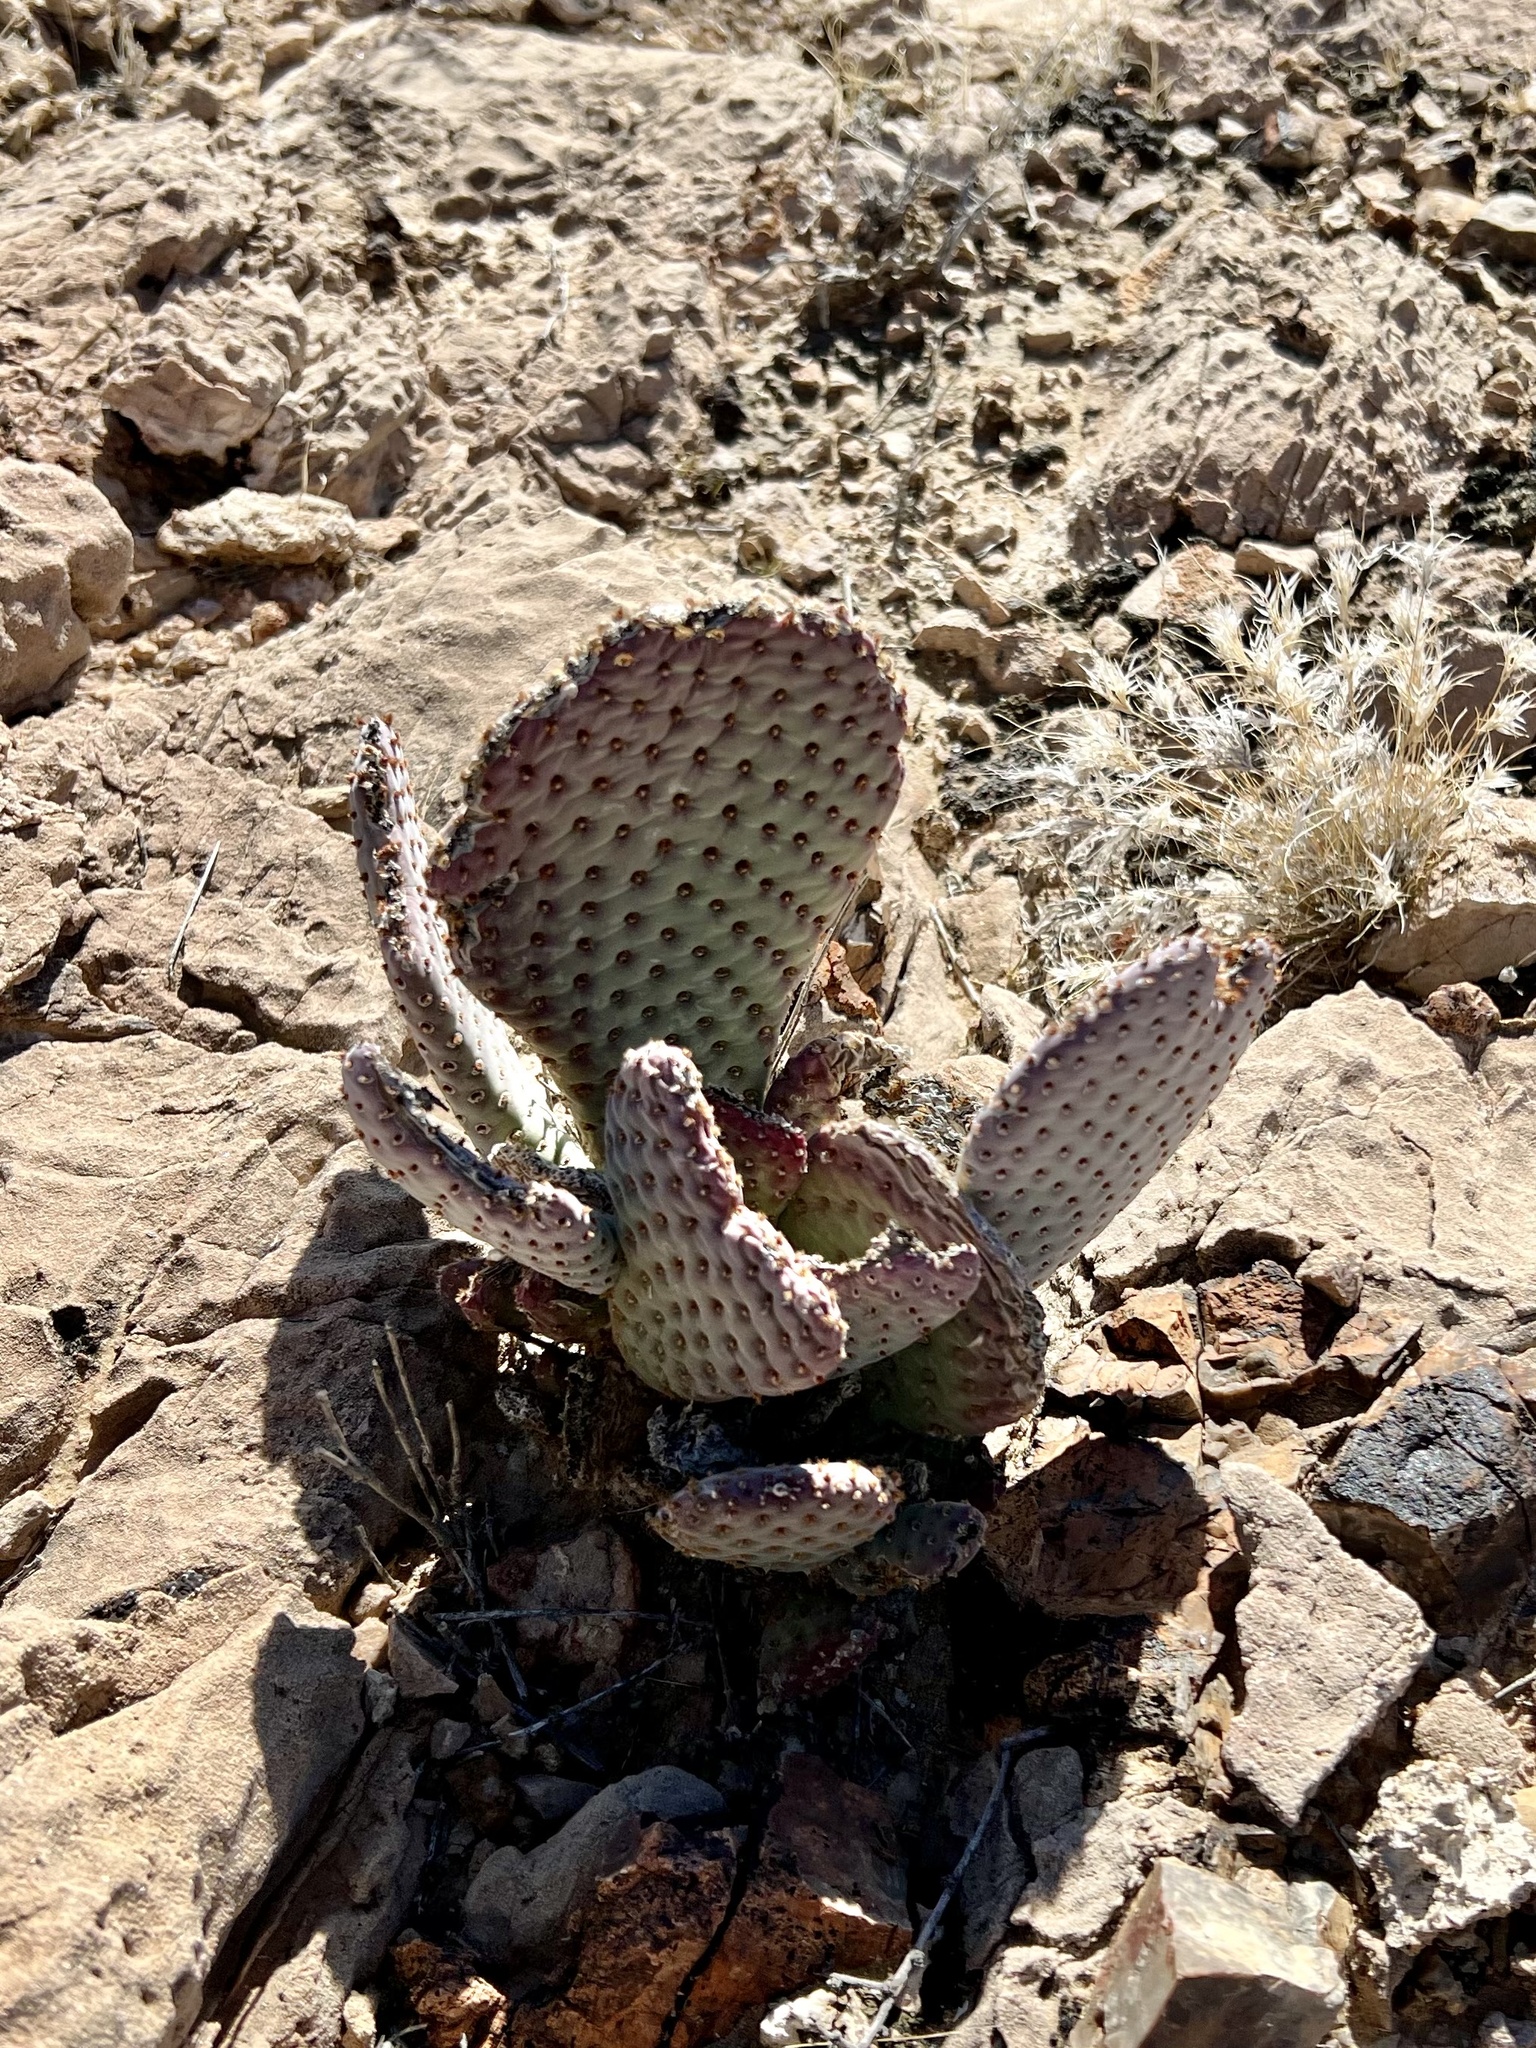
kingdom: Plantae
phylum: Tracheophyta
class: Magnoliopsida
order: Caryophyllales
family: Cactaceae
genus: Opuntia
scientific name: Opuntia basilaris
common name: Beavertail prickly-pear
